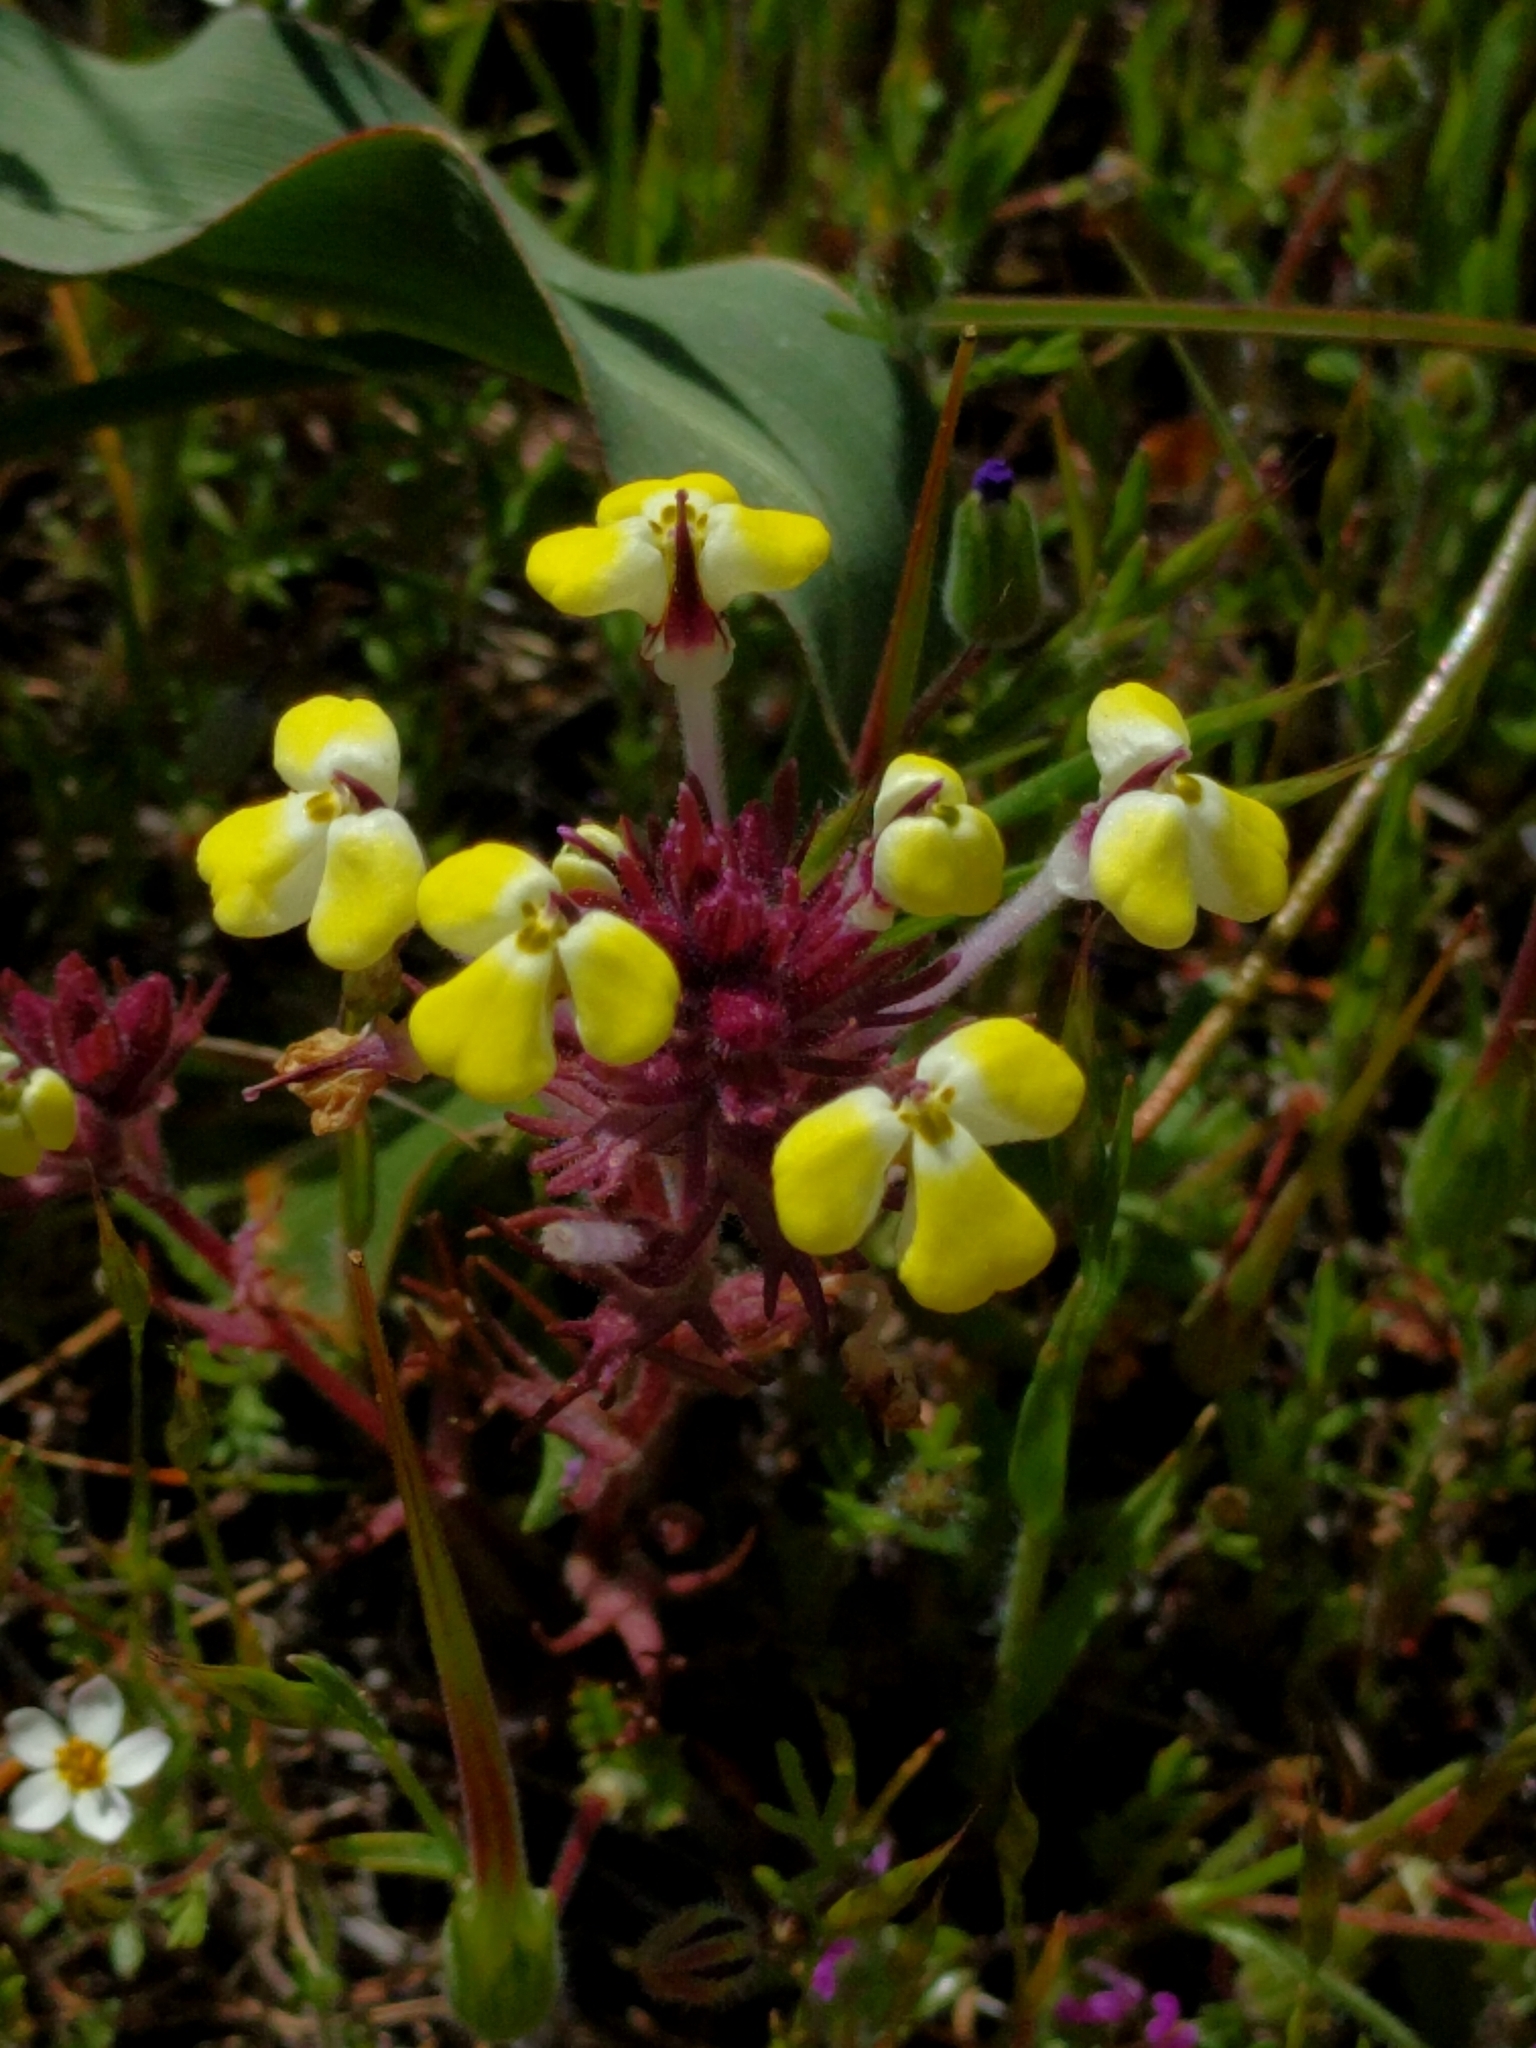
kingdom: Plantae
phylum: Tracheophyta
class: Magnoliopsida
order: Lamiales
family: Orobanchaceae
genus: Triphysaria
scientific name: Triphysaria eriantha
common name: Johnny-tuck
